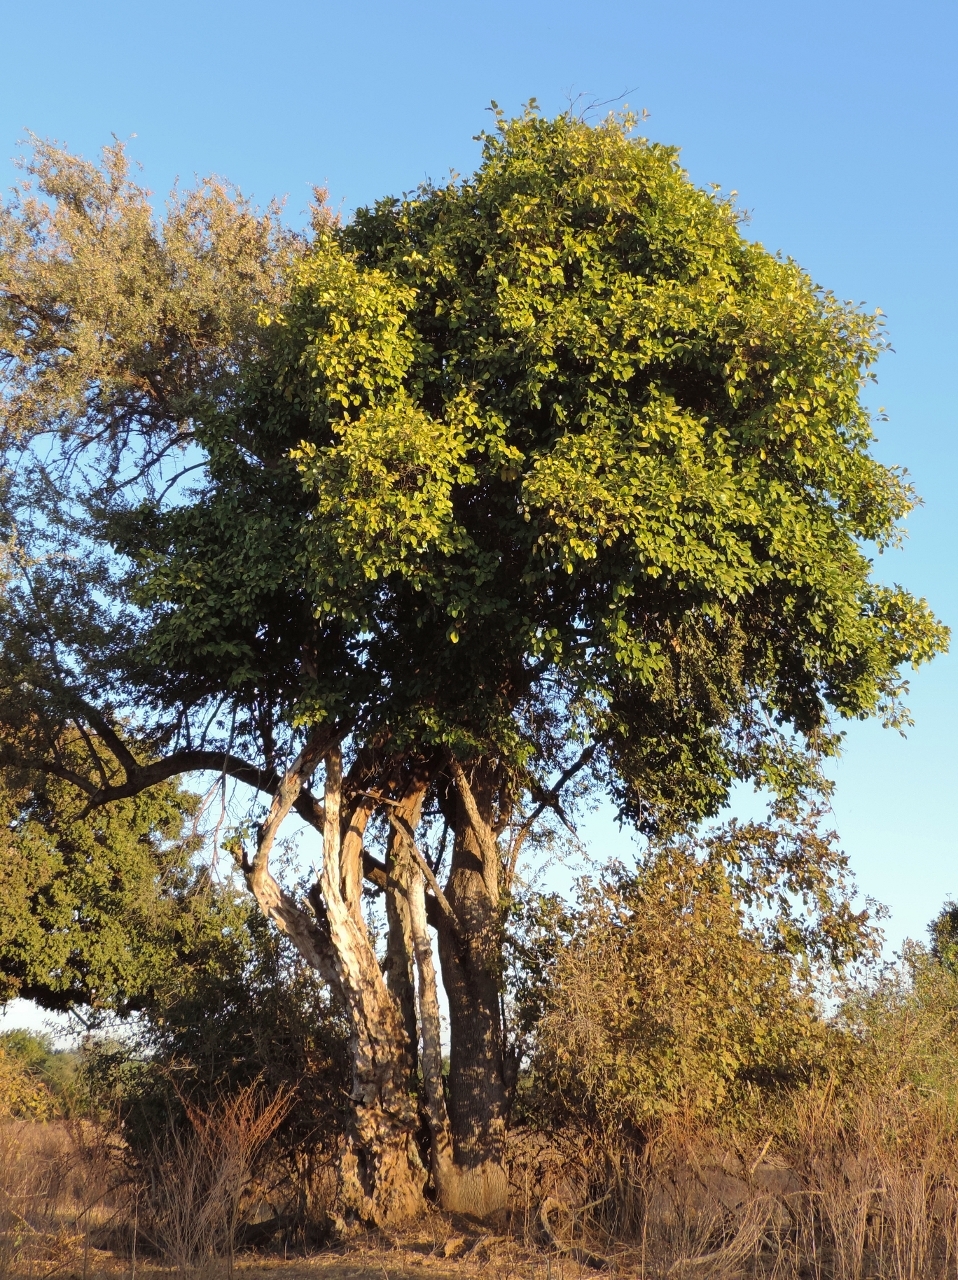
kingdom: Plantae
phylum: Tracheophyta
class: Magnoliopsida
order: Boraginales
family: Cordiaceae
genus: Cordia
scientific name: Cordia goetzei
